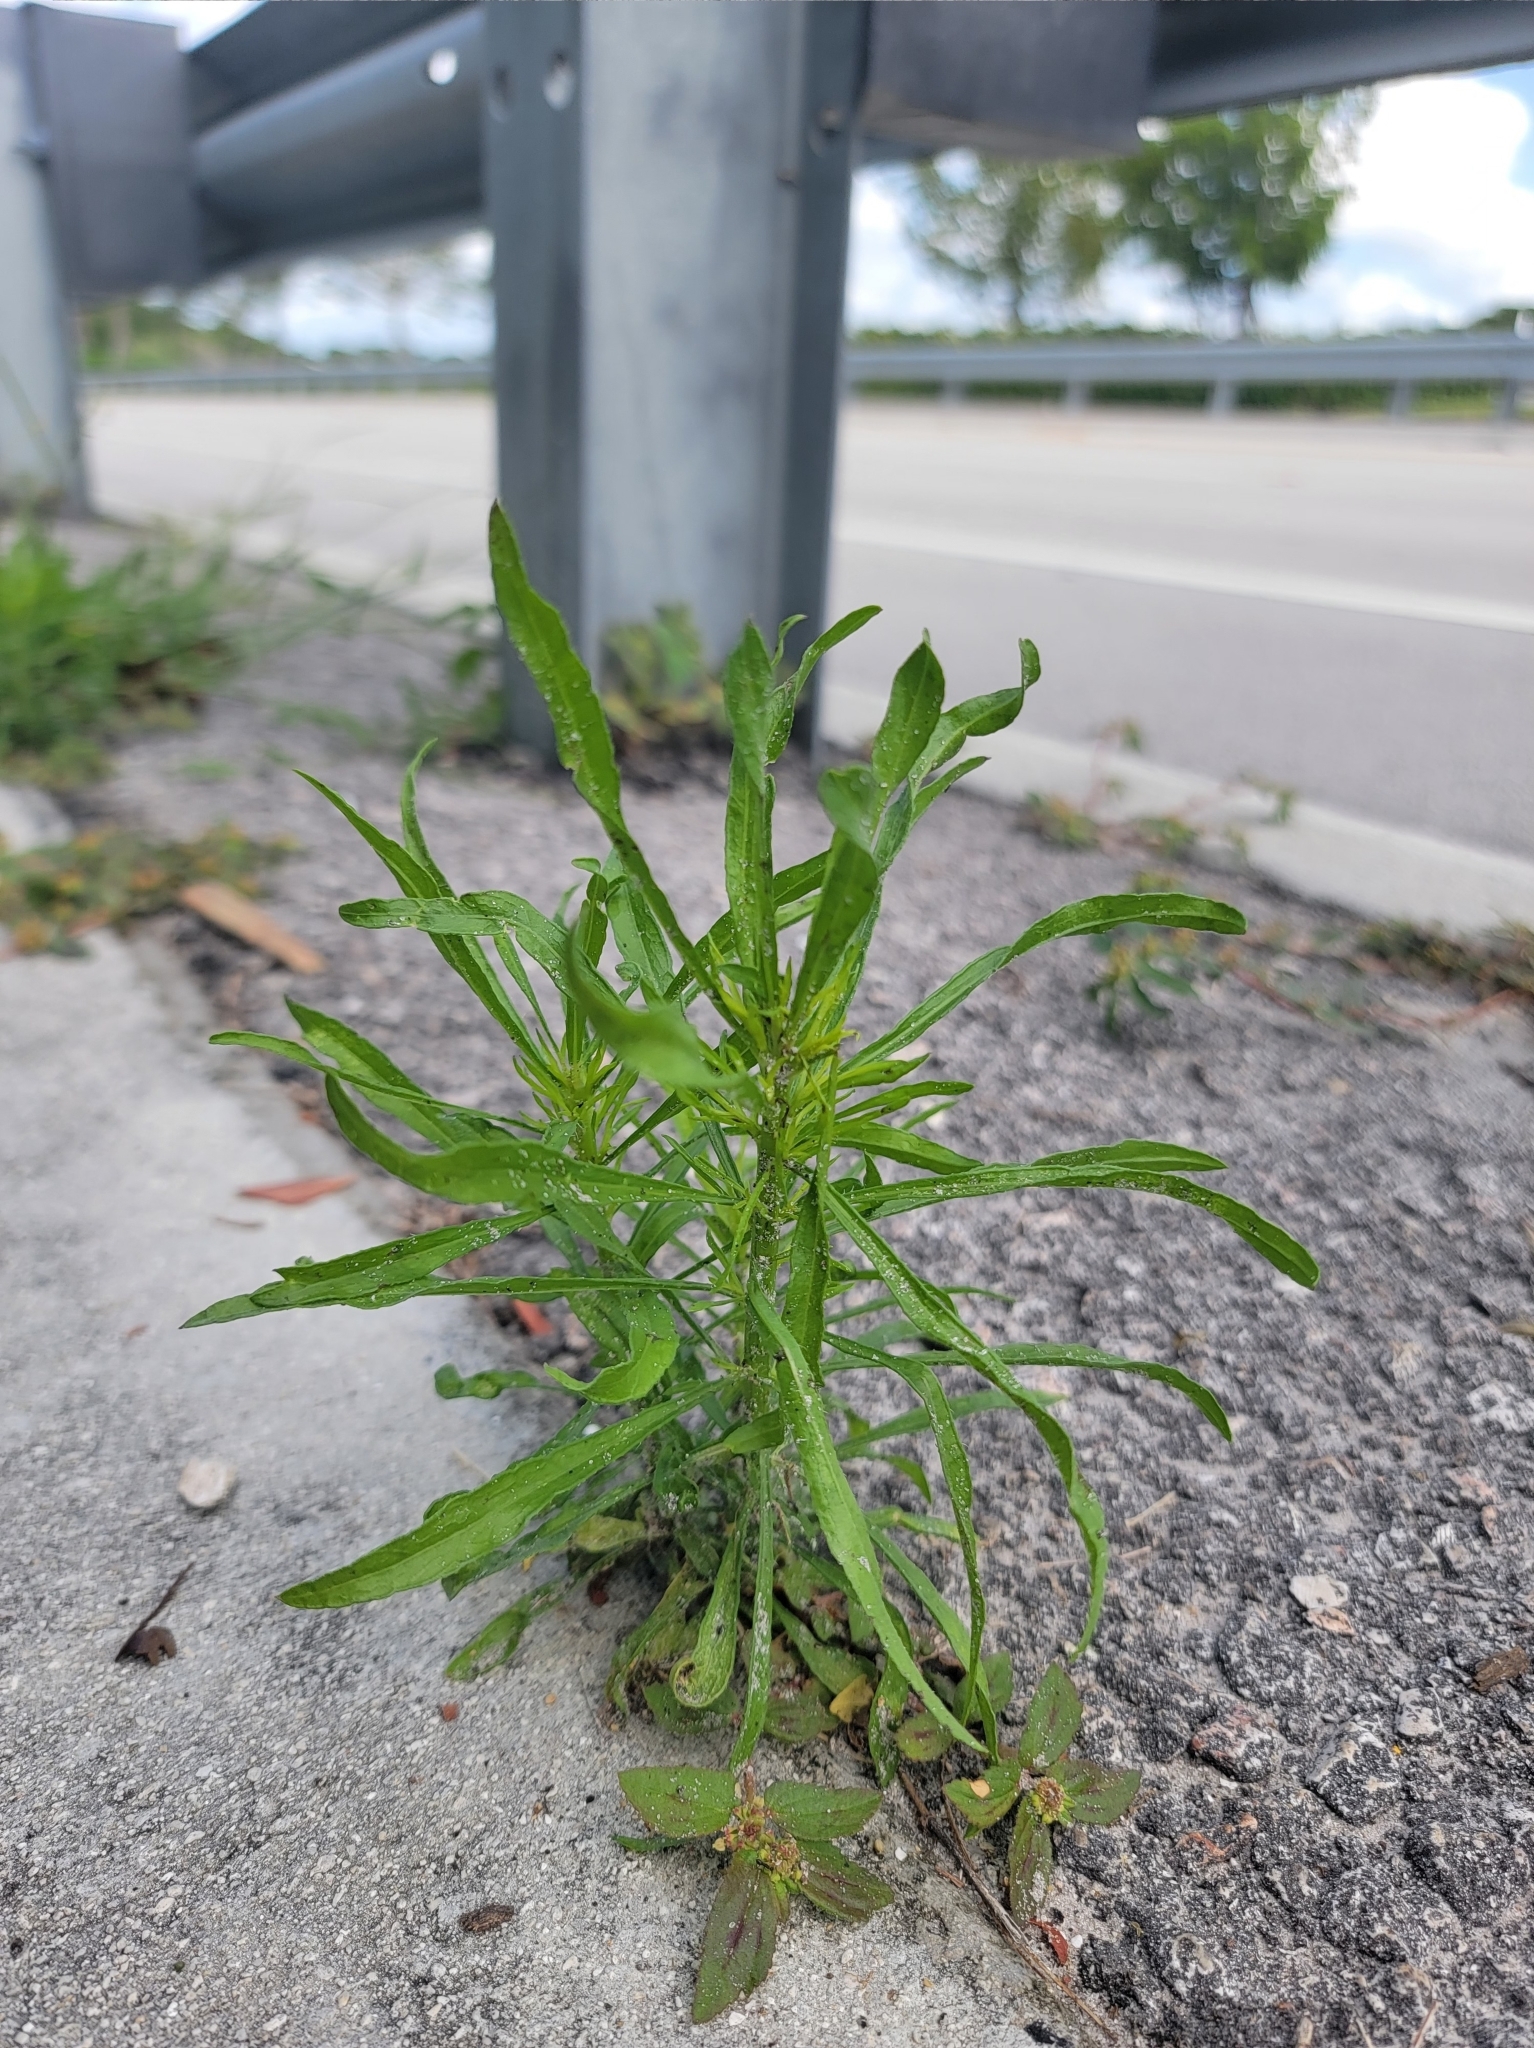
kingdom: Plantae
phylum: Tracheophyta
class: Magnoliopsida
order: Asterales
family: Asteraceae
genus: Erigeron
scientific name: Erigeron canadensis
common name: Canadian fleabane
